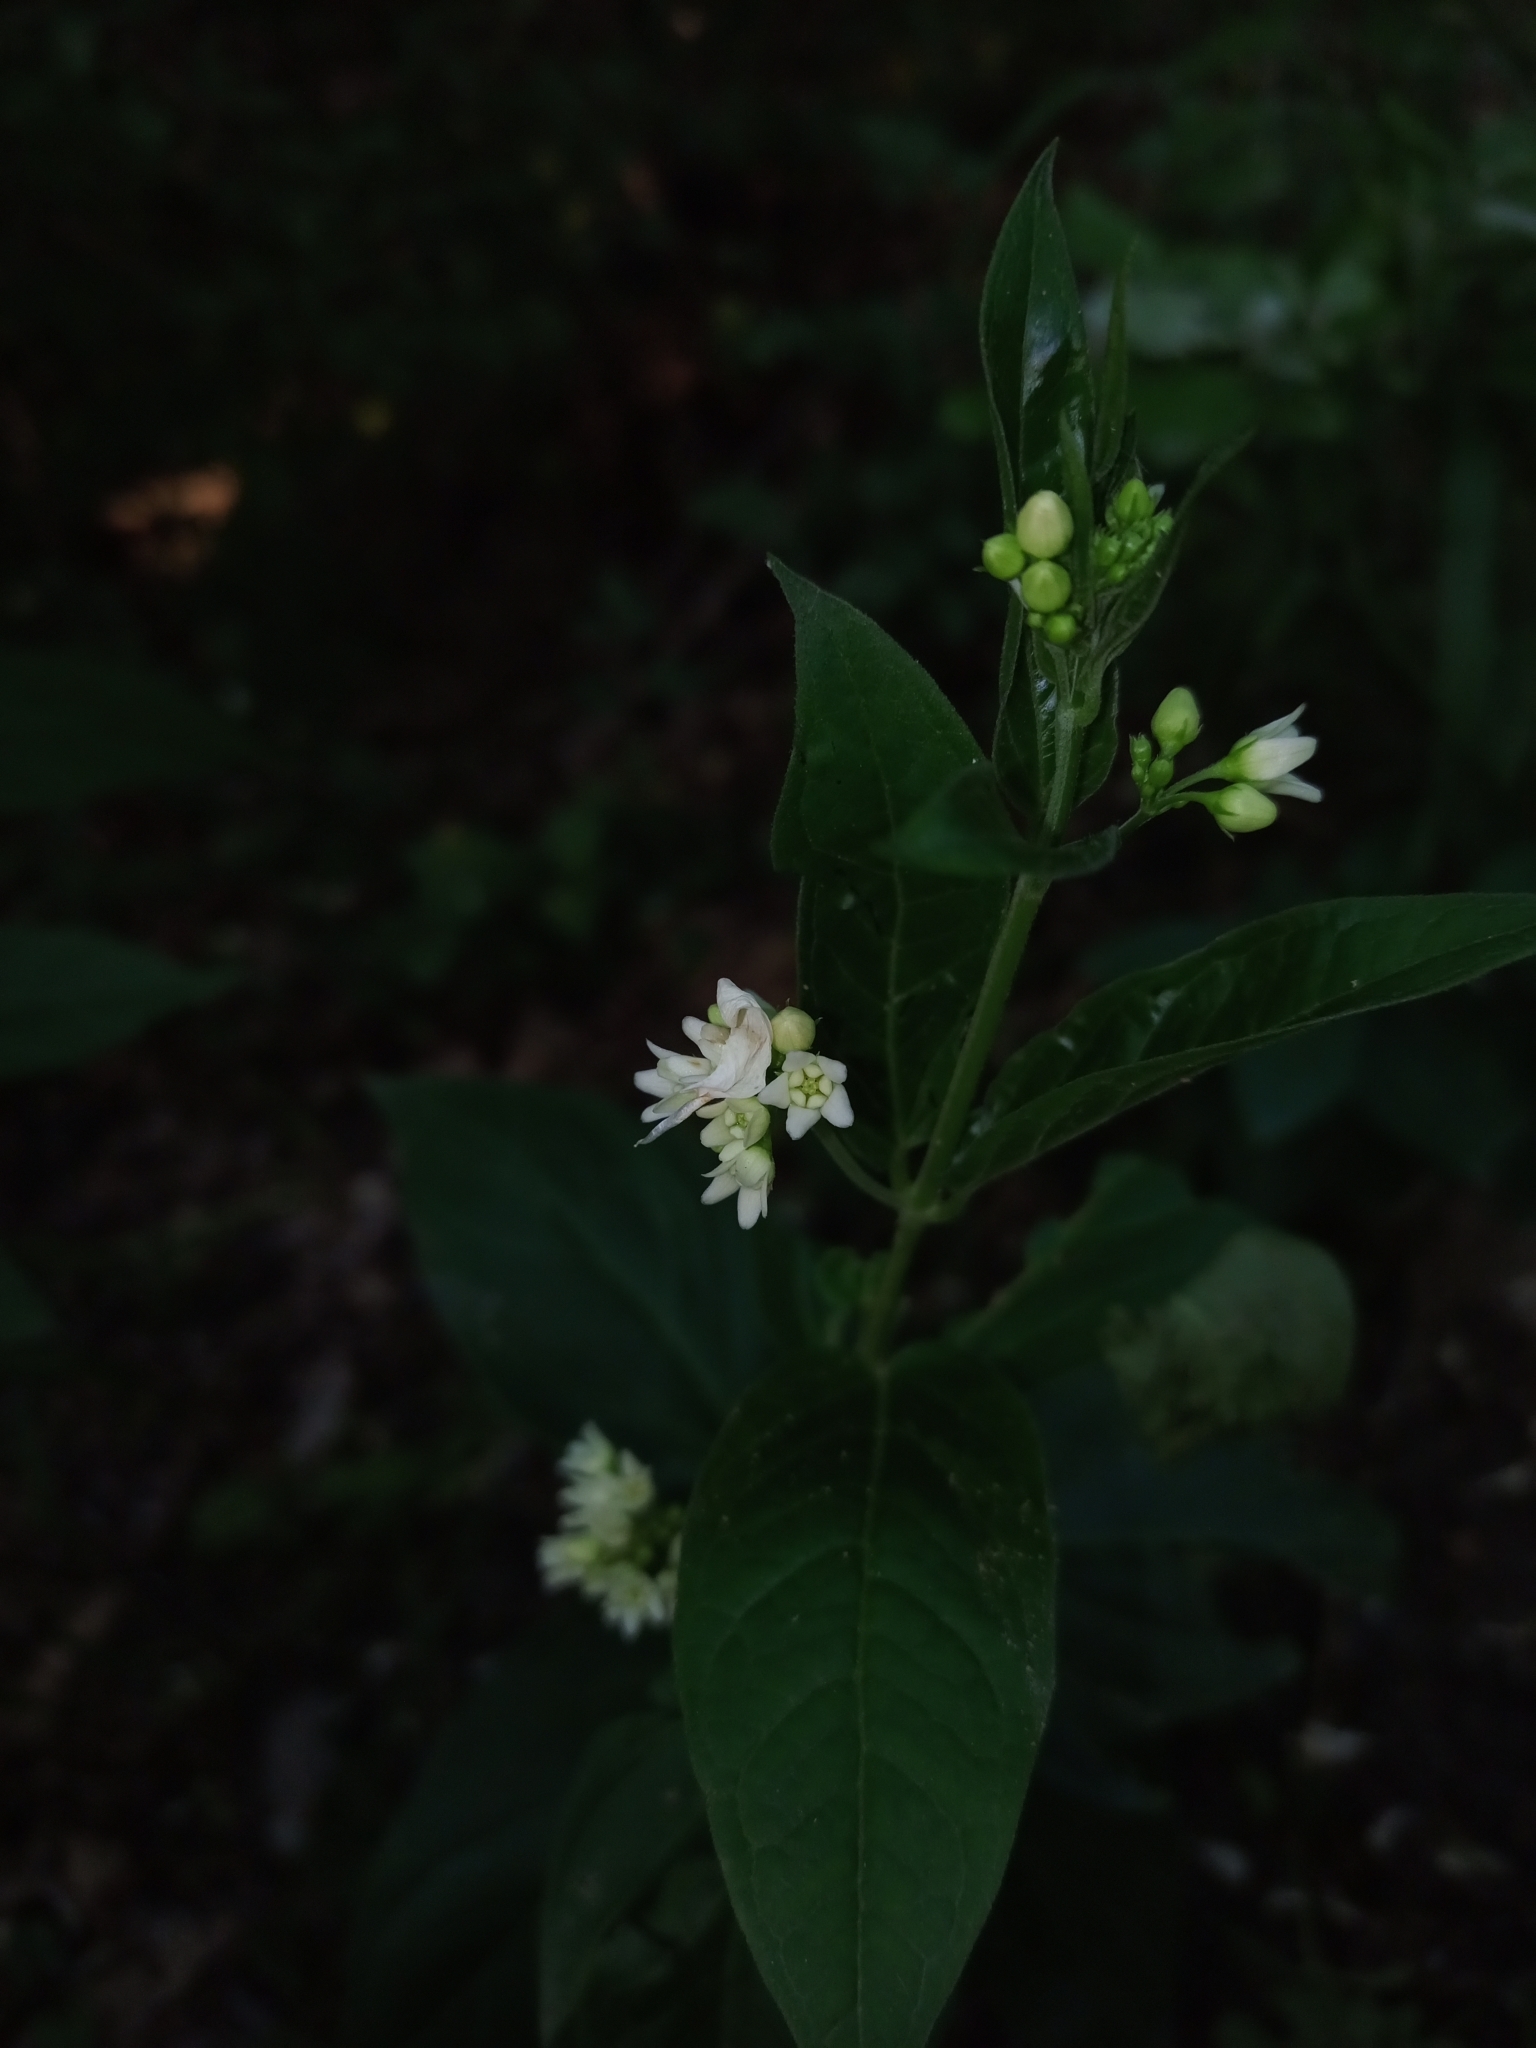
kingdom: Plantae
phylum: Tracheophyta
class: Magnoliopsida
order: Gentianales
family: Apocynaceae
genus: Vincetoxicum
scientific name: Vincetoxicum hirundinaria
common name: White swallowwort
